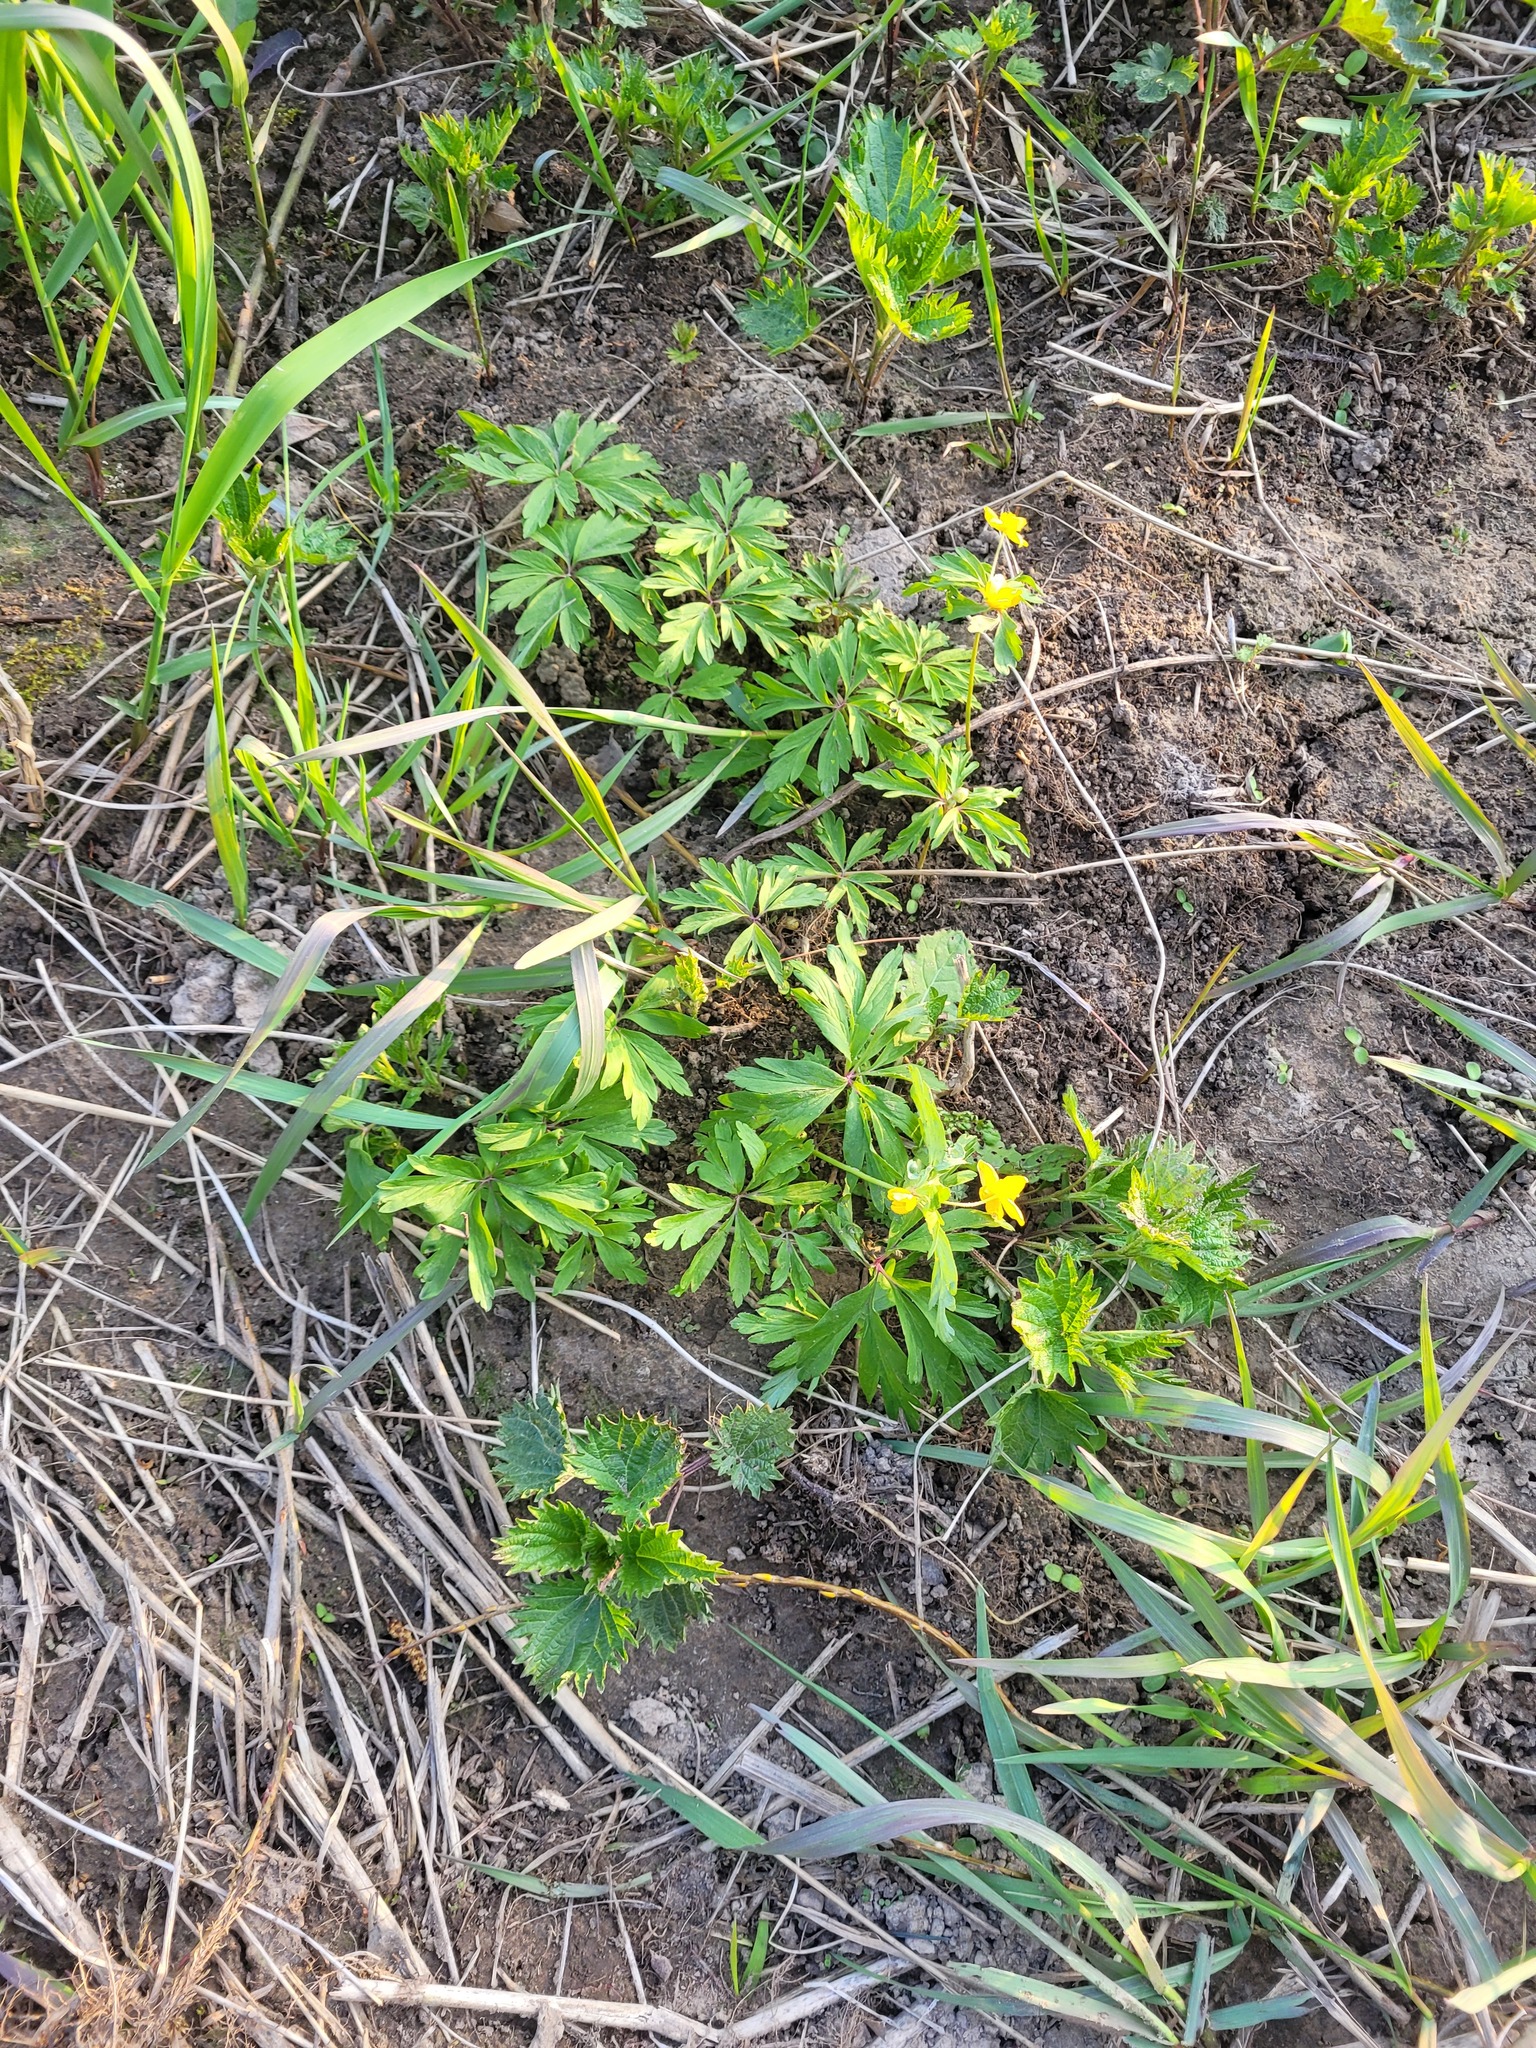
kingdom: Plantae
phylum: Tracheophyta
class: Magnoliopsida
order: Ranunculales
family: Ranunculaceae
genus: Anemone
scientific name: Anemone ranunculoides
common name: Yellow anemone
